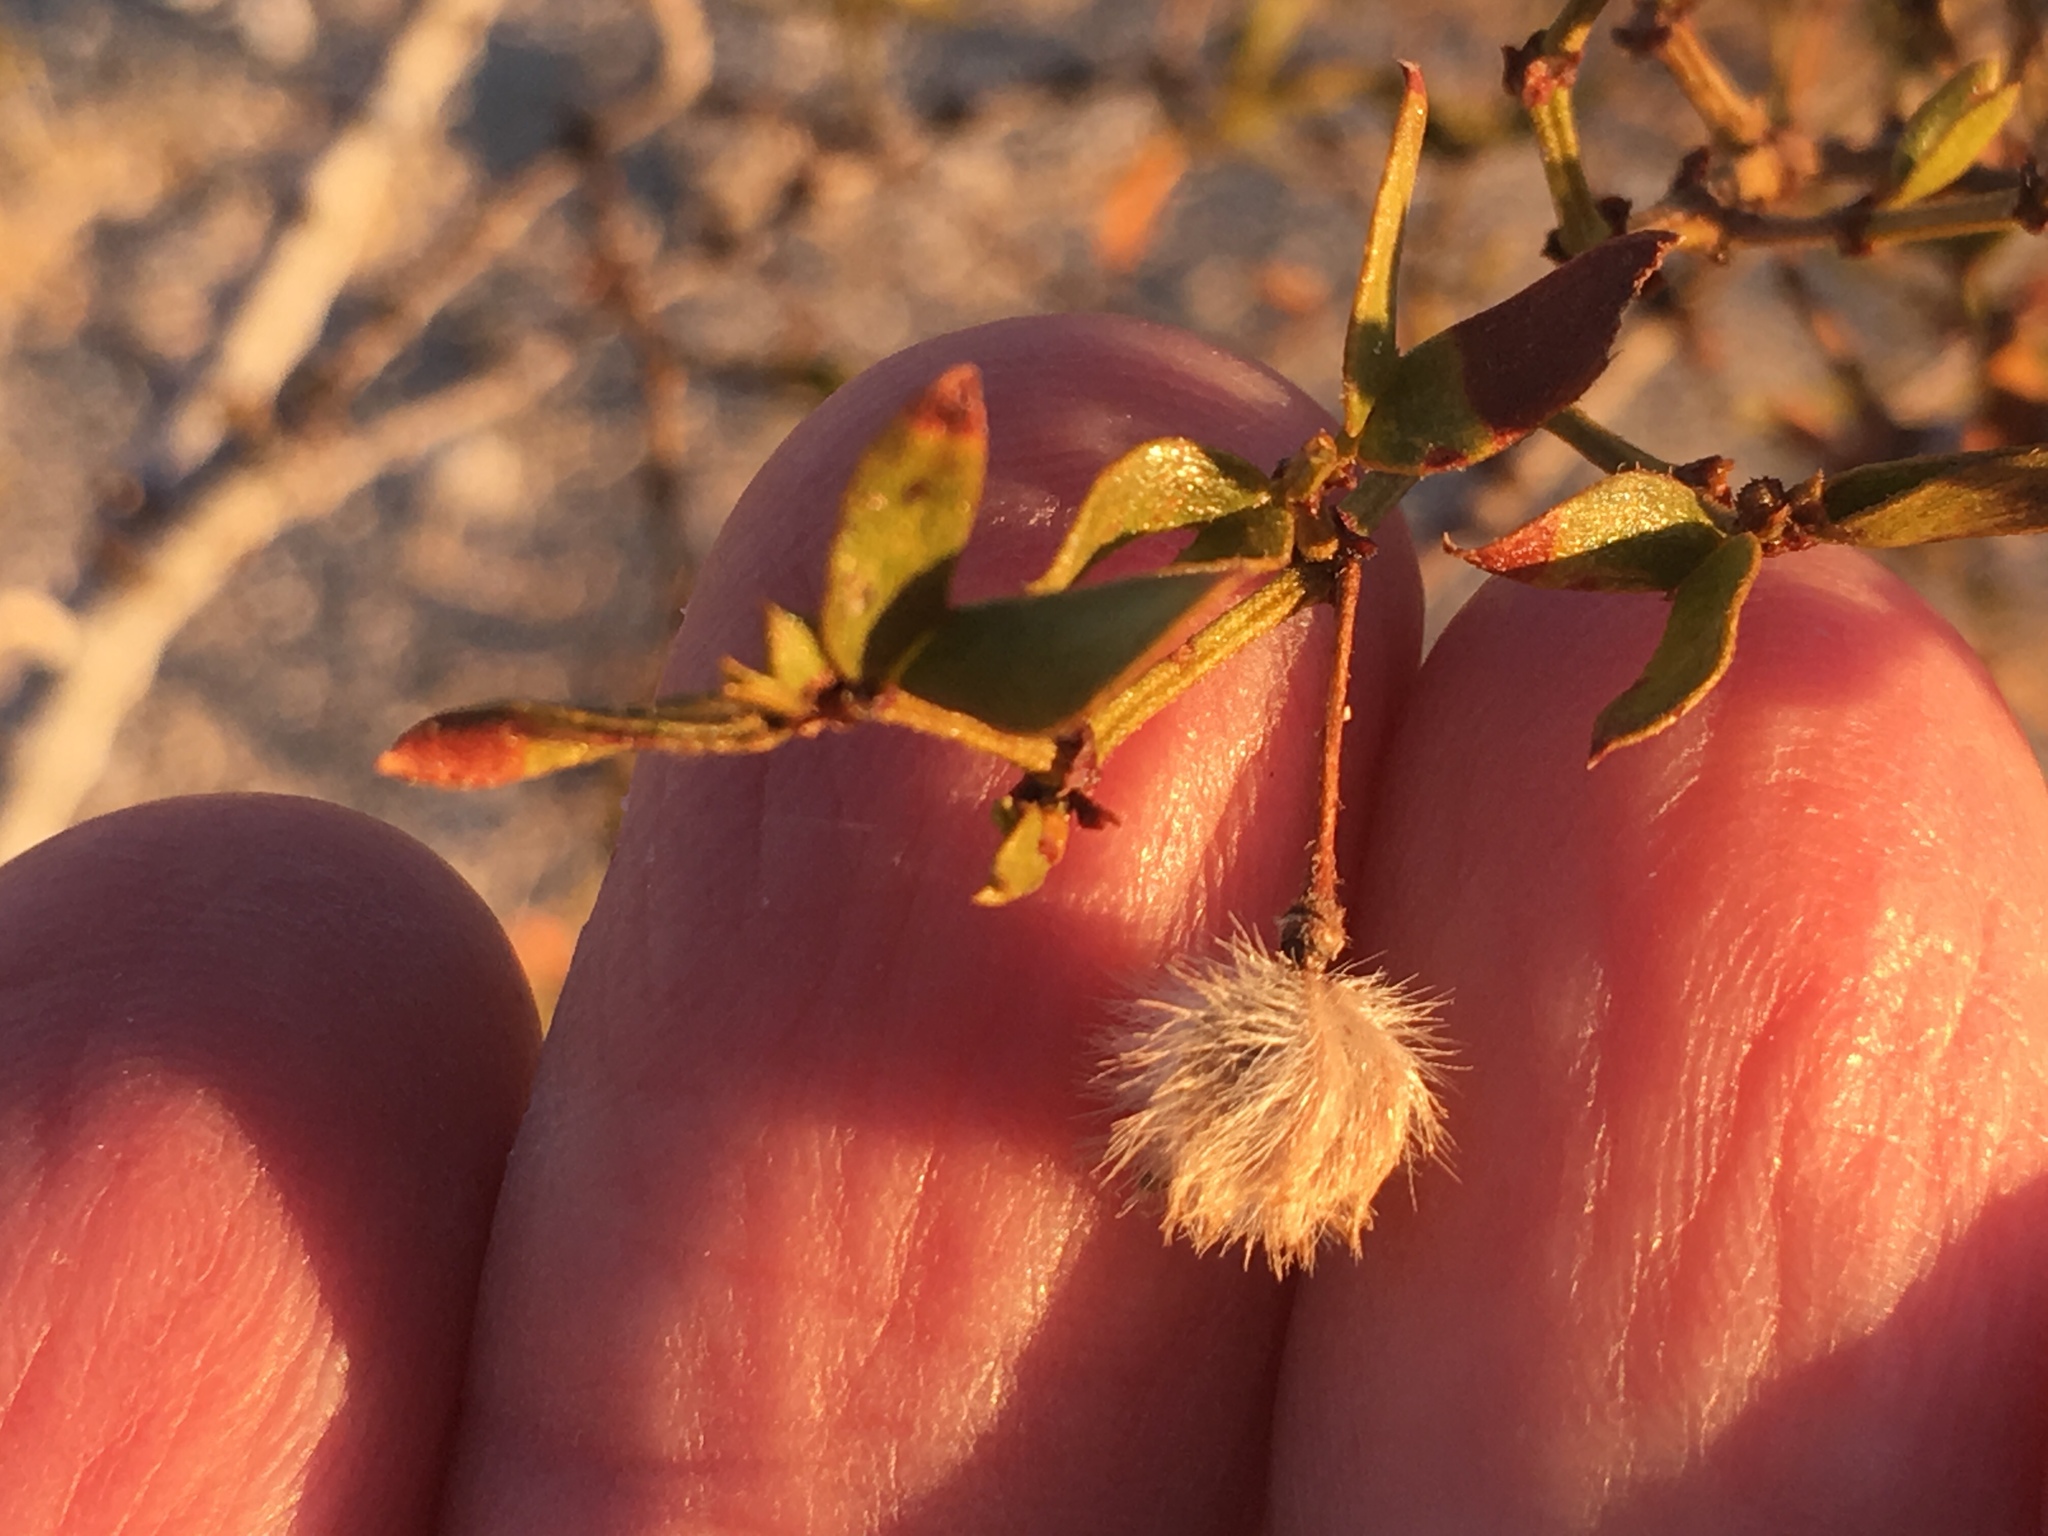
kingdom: Plantae
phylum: Tracheophyta
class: Magnoliopsida
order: Zygophyllales
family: Zygophyllaceae
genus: Larrea
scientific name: Larrea tridentata
